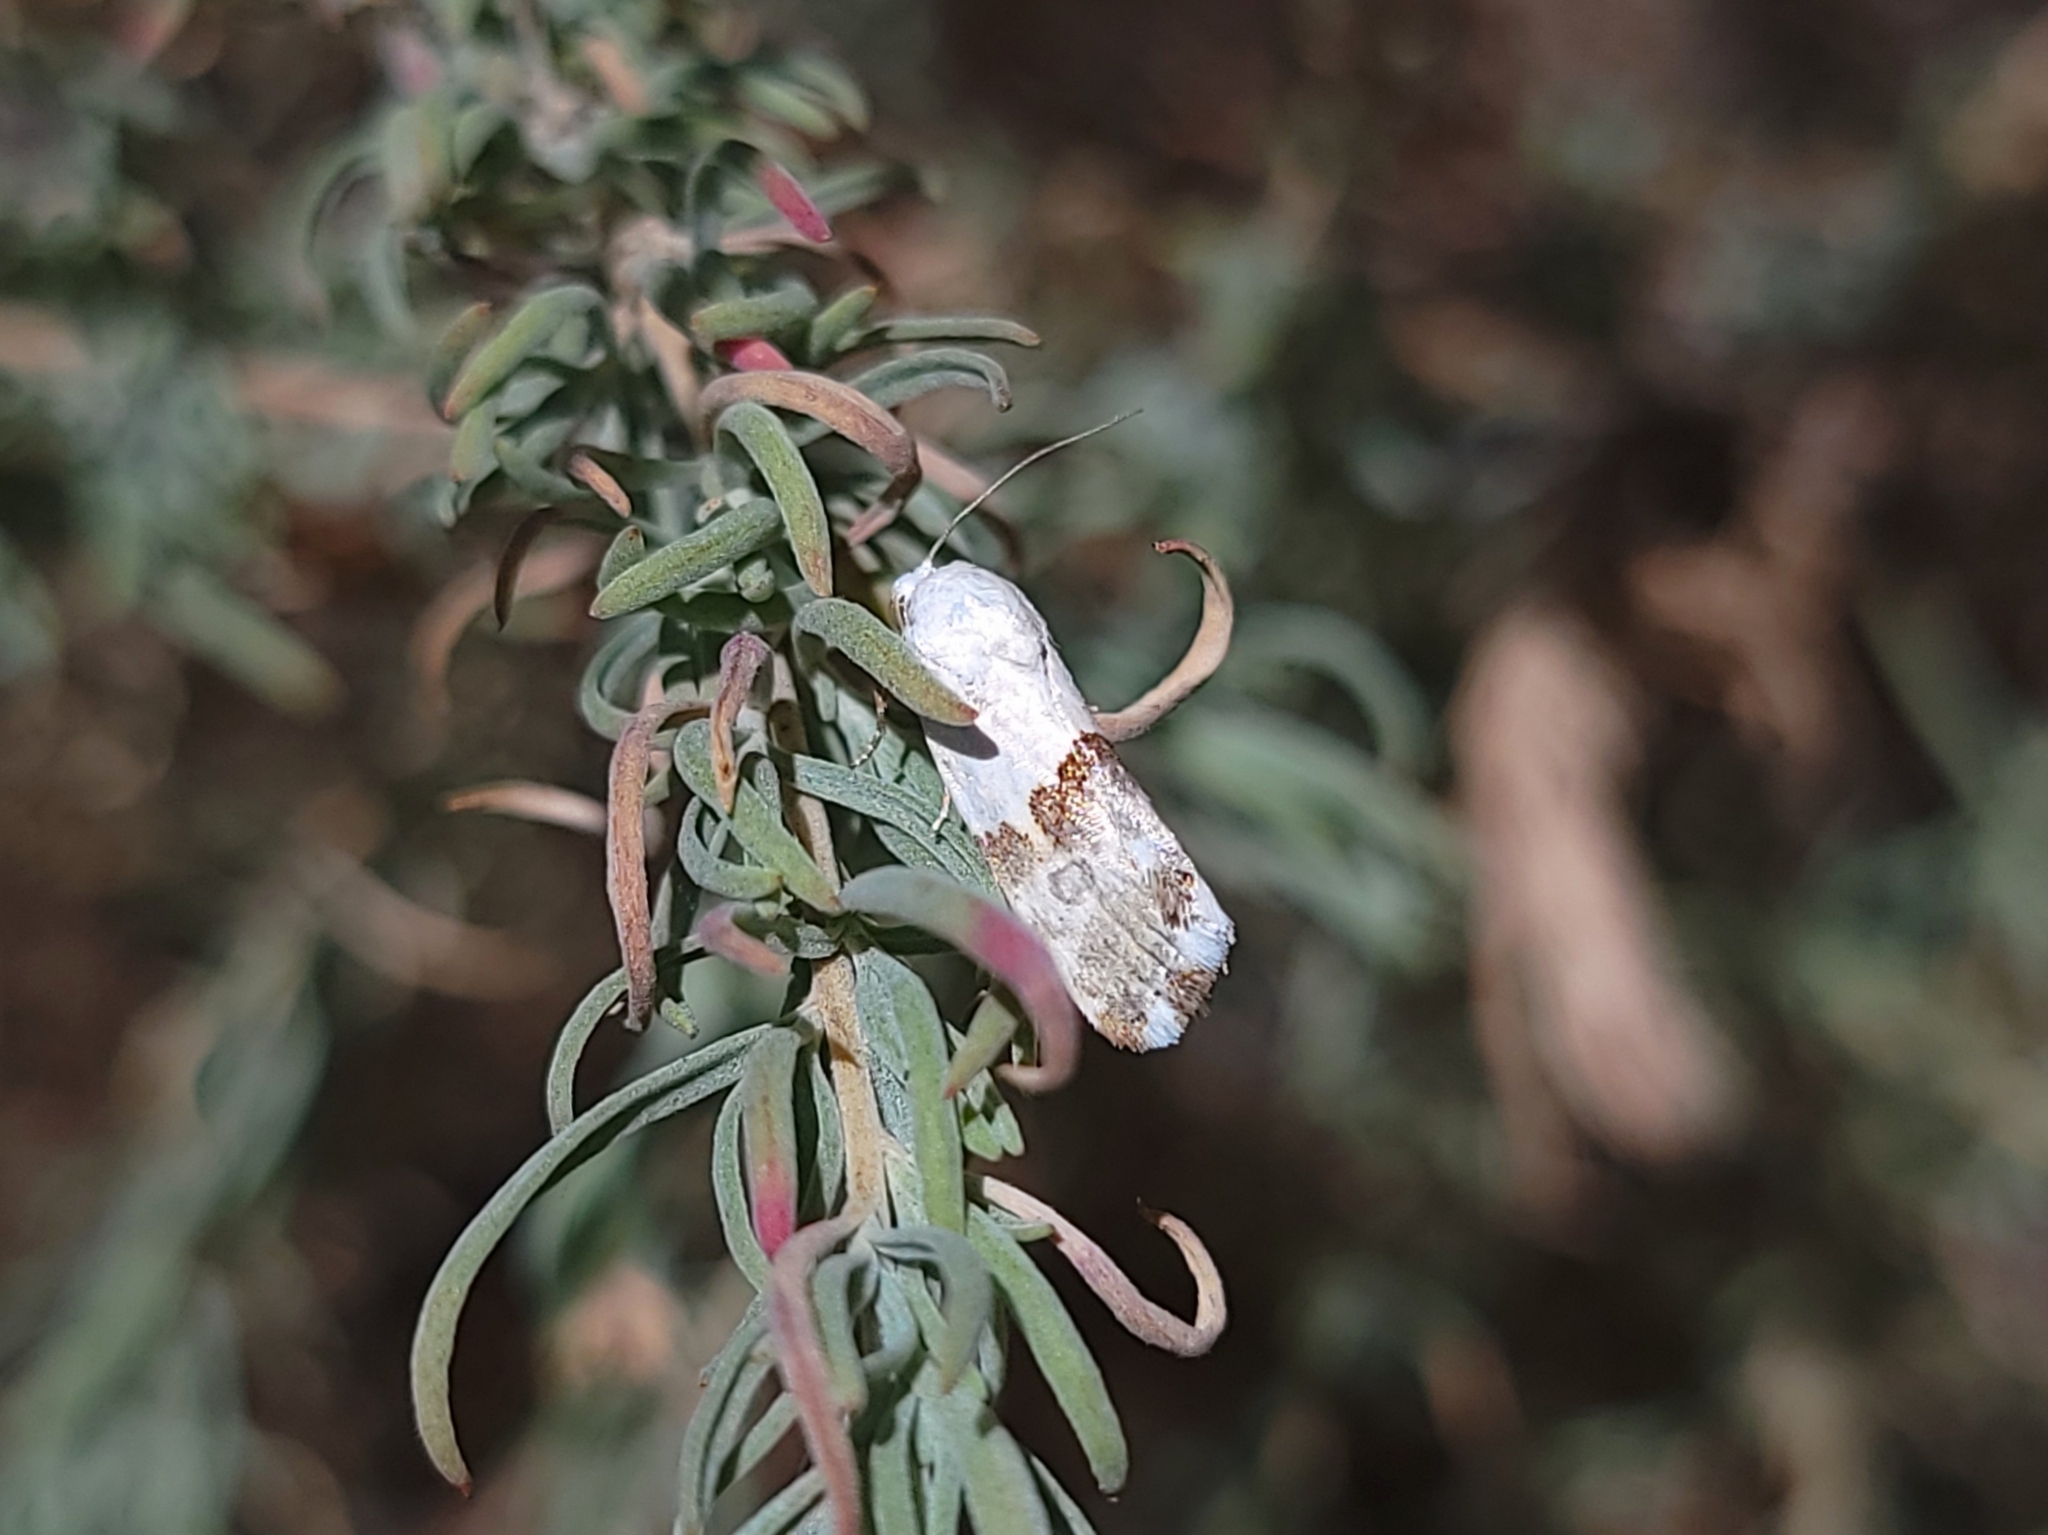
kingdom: Animalia
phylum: Arthropoda
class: Insecta
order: Lepidoptera
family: Noctuidae
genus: Ponometia
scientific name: Ponometia elegantula
